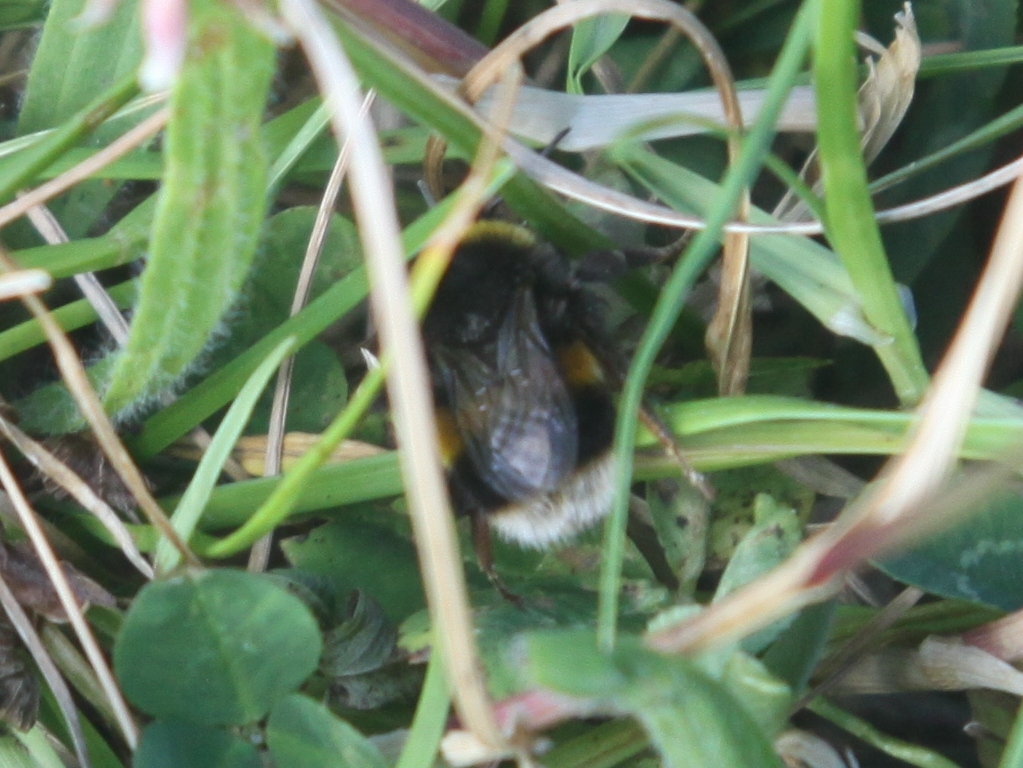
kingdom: Animalia
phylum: Arthropoda
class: Insecta
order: Hymenoptera
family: Apidae
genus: Bombus
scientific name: Bombus terrestris
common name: Buff-tailed bumblebee
